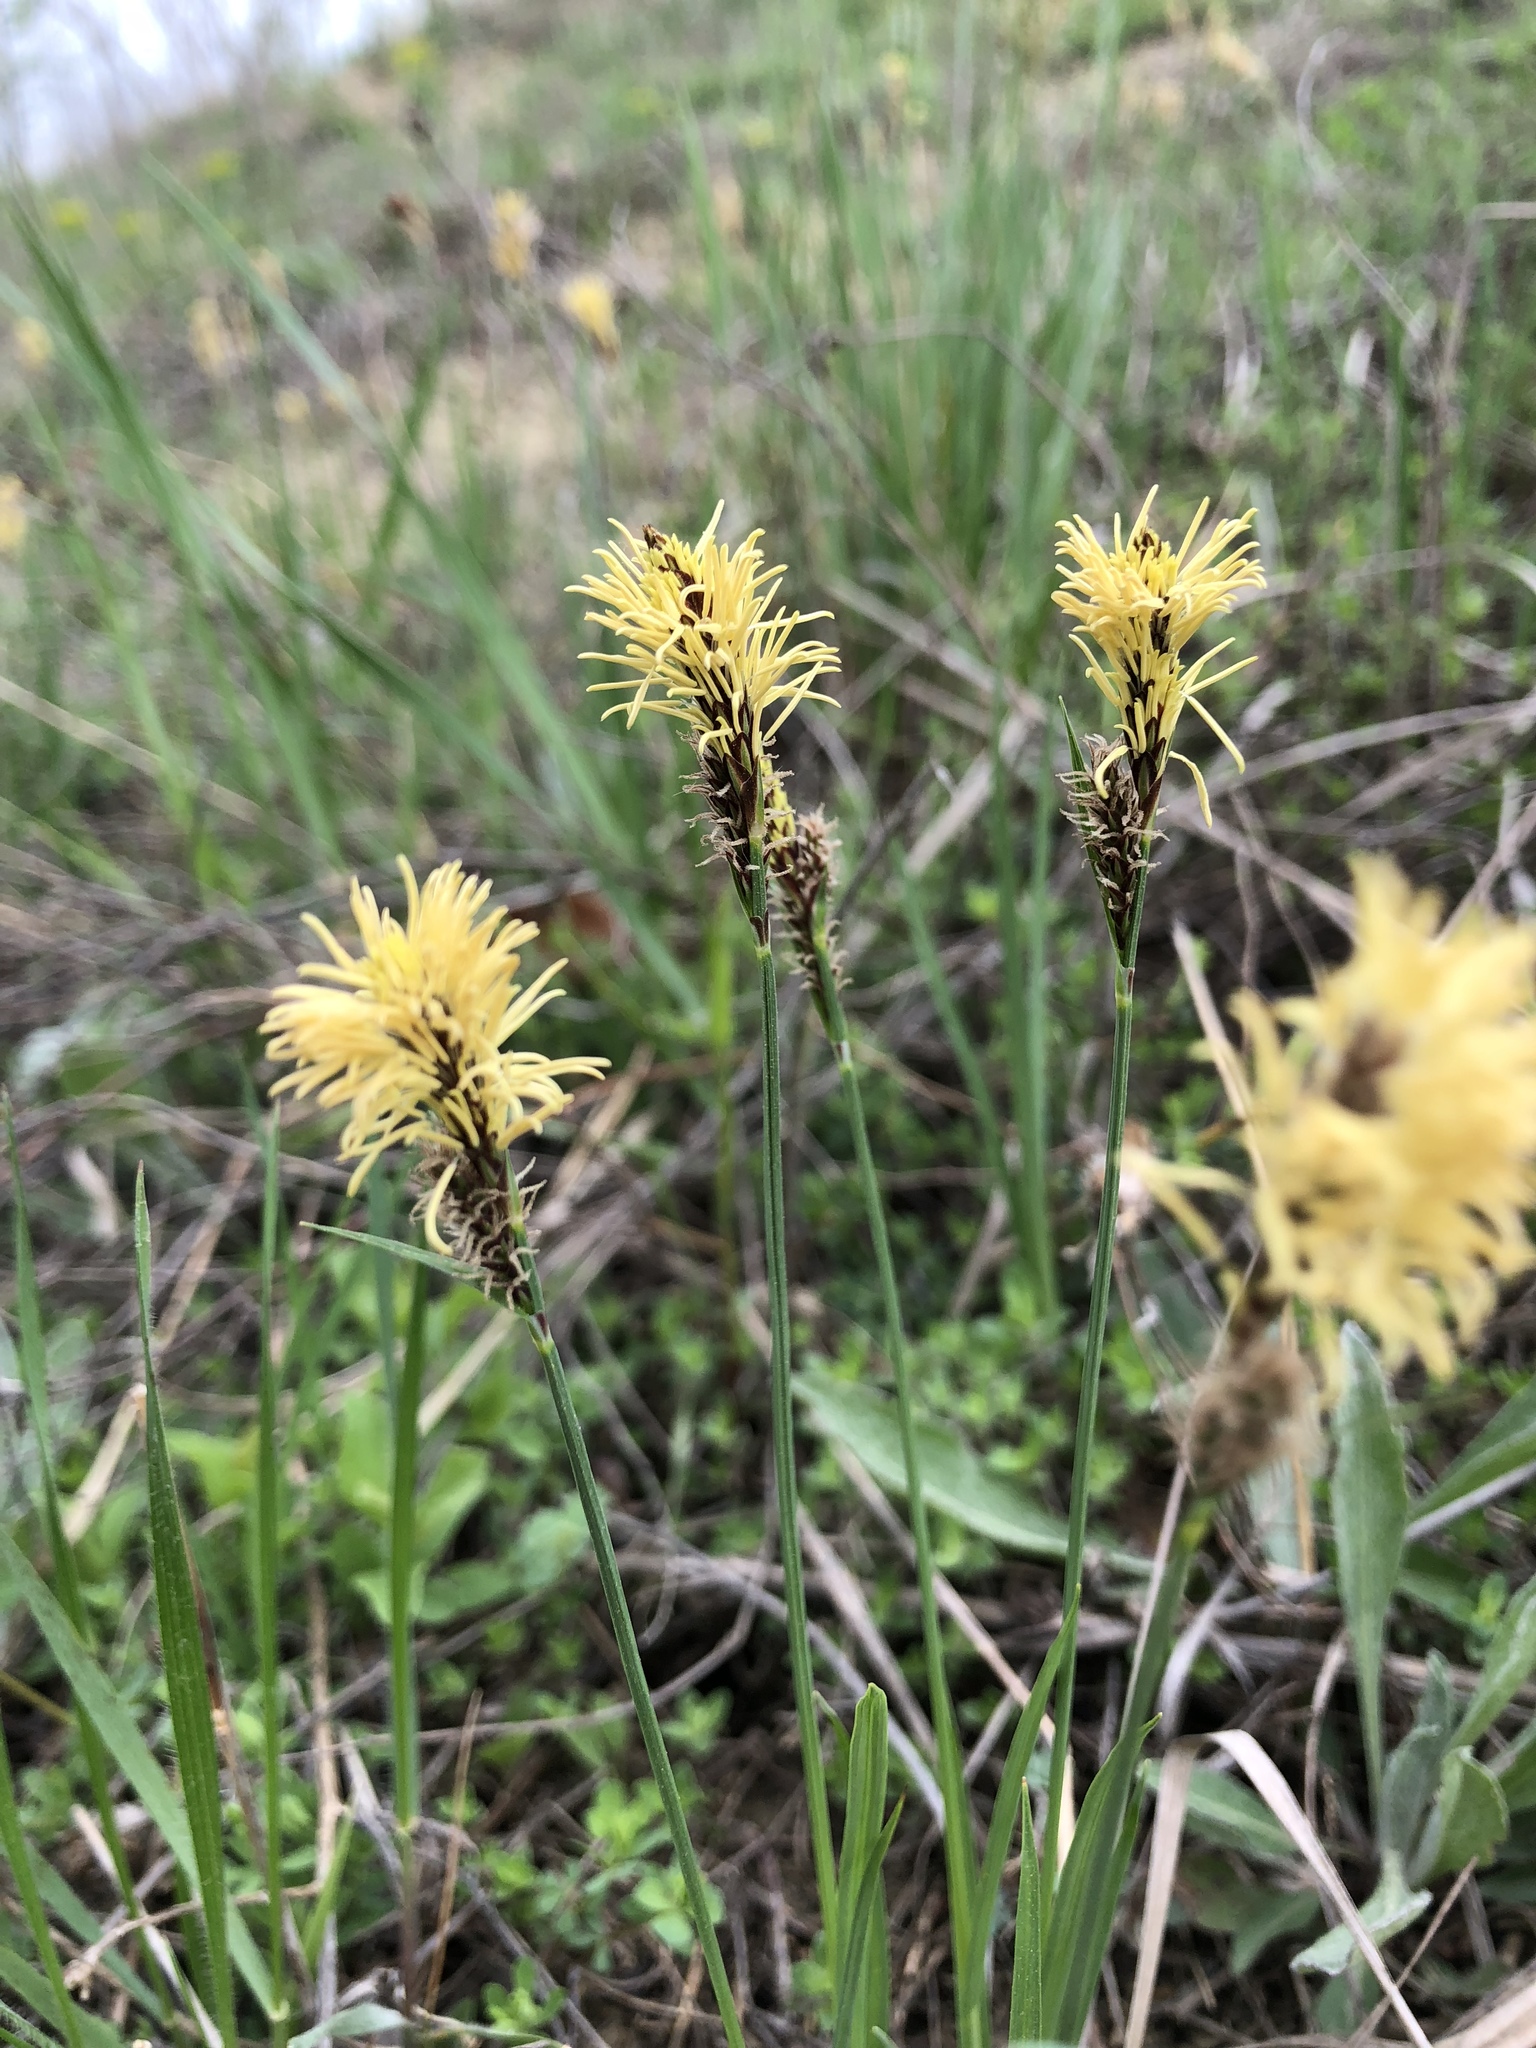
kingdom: Plantae
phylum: Tracheophyta
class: Liliopsida
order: Poales
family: Cyperaceae
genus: Carex
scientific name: Carex humilis
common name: Dwarf sedge
